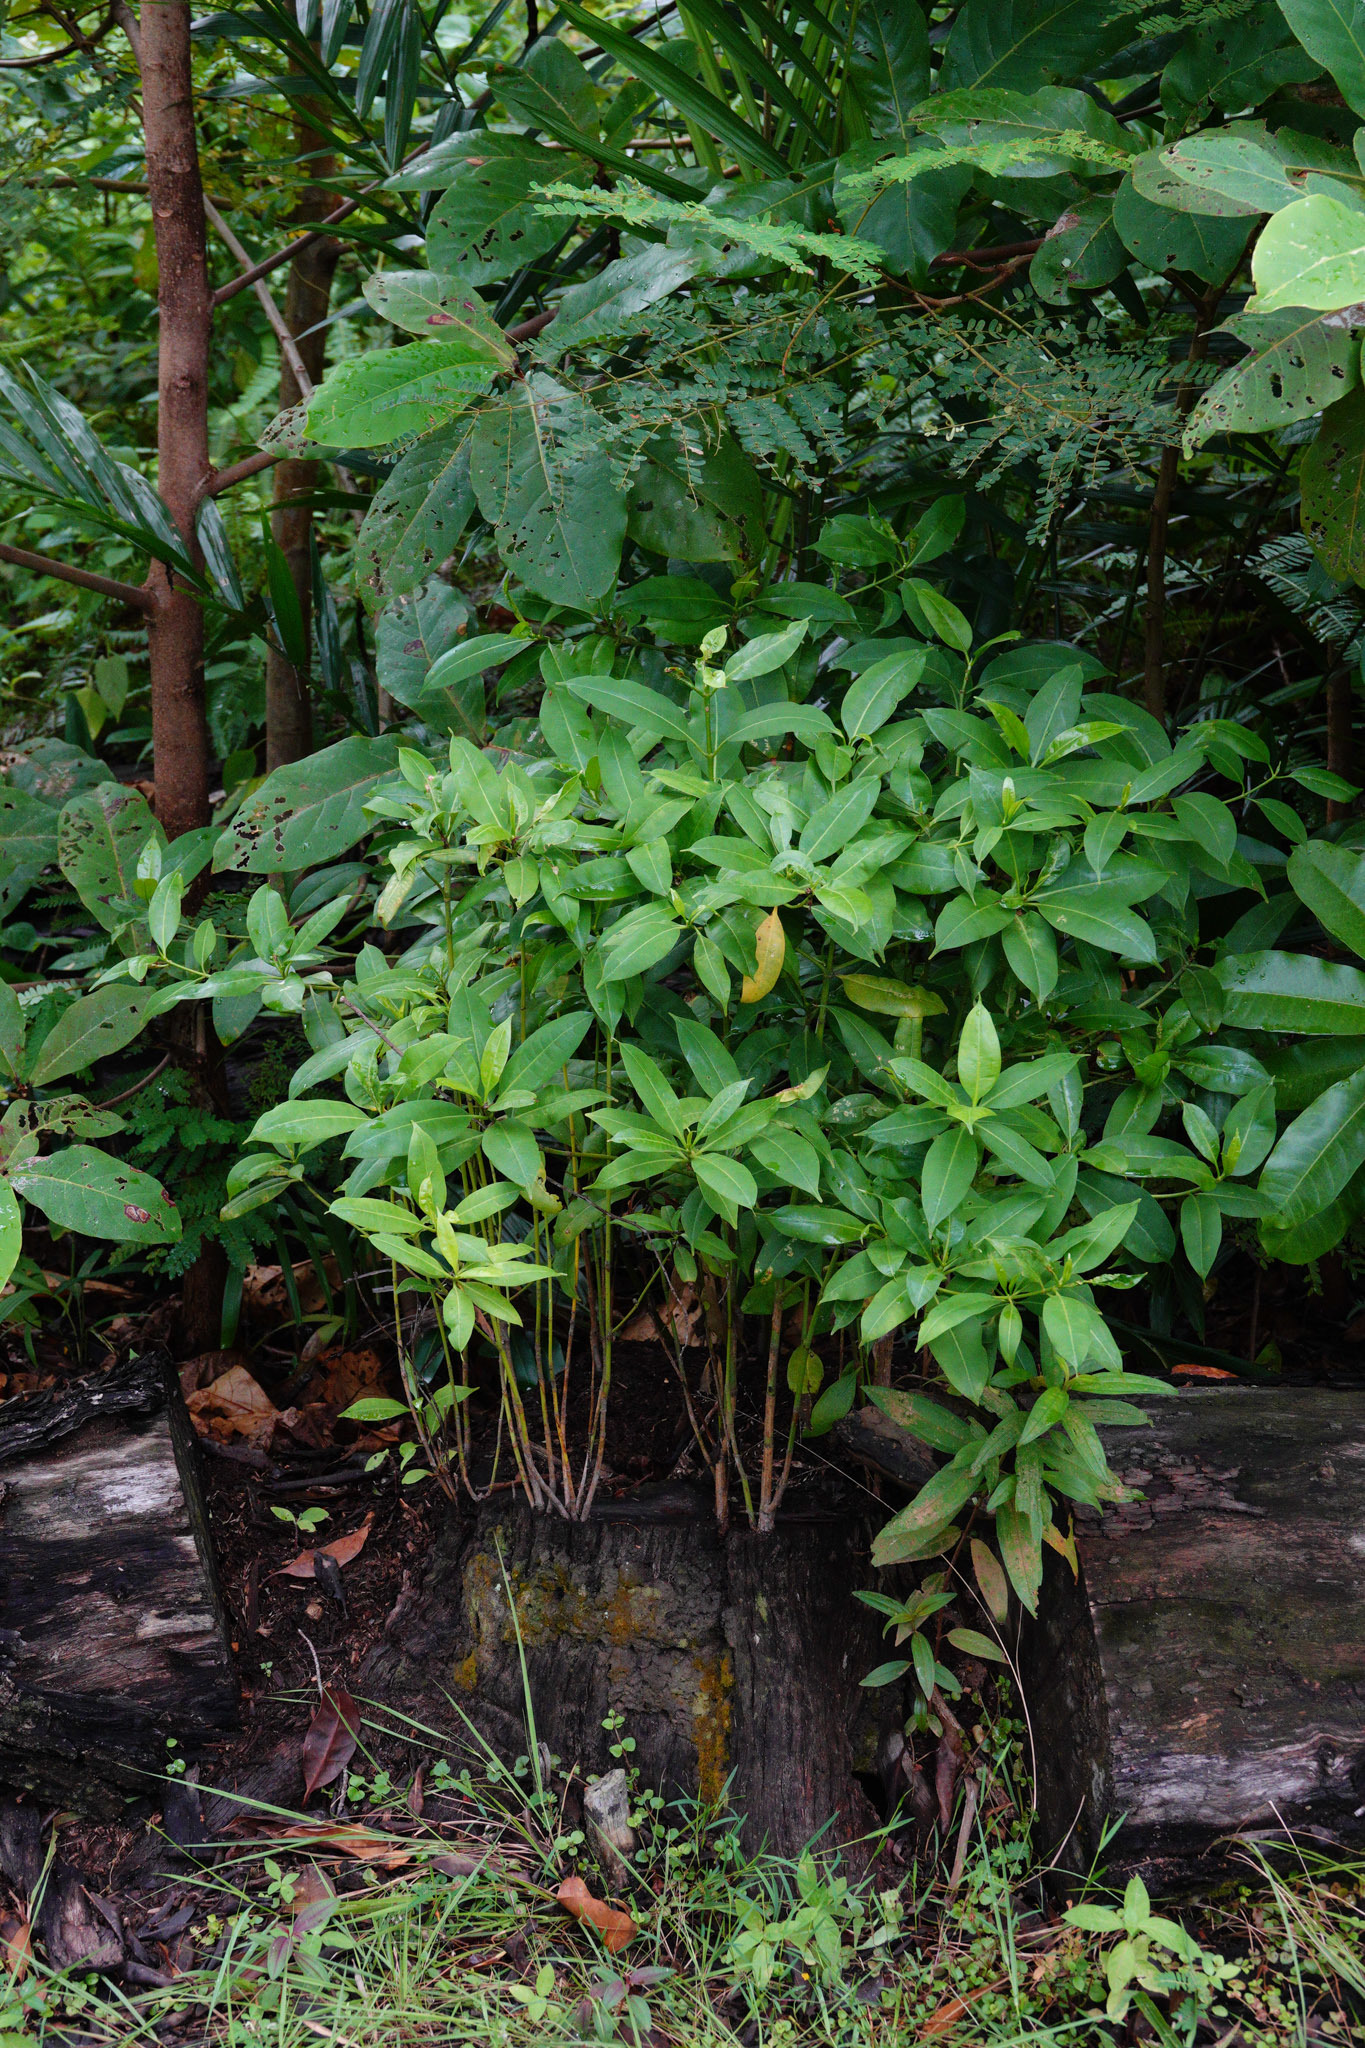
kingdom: Plantae
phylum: Tracheophyta
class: Magnoliopsida
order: Gentianales
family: Gentianaceae
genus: Cyrtophyllum
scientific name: Cyrtophyllum fragrans
